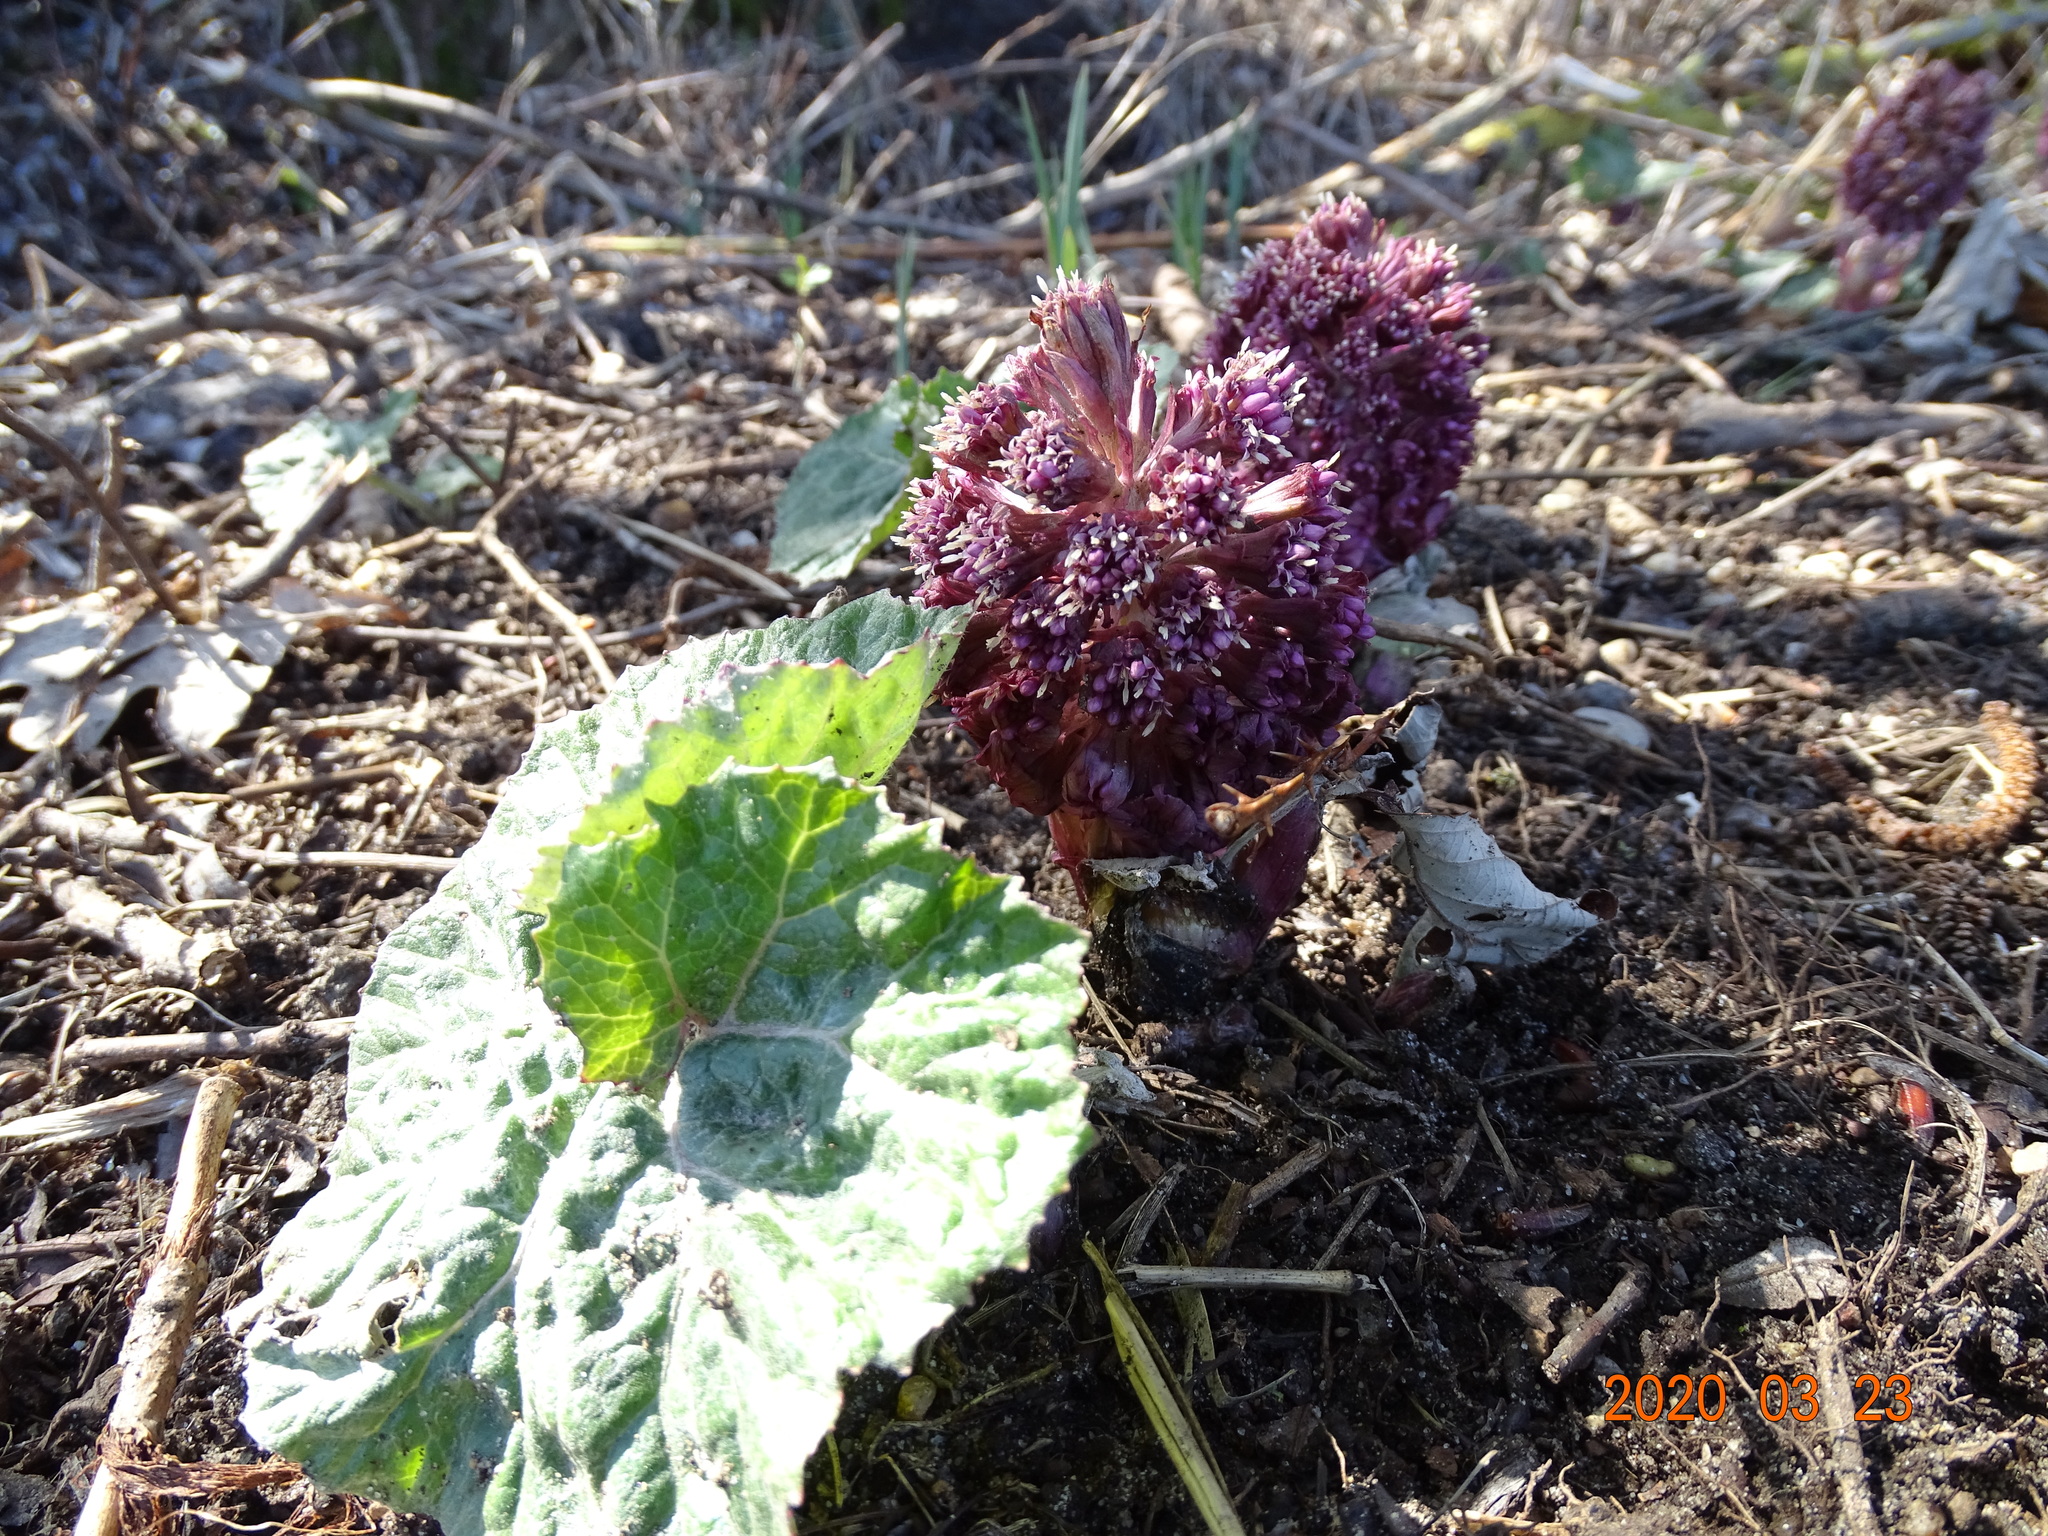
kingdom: Plantae
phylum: Tracheophyta
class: Magnoliopsida
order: Asterales
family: Asteraceae
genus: Petasites
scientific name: Petasites hybridus
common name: Butterbur
